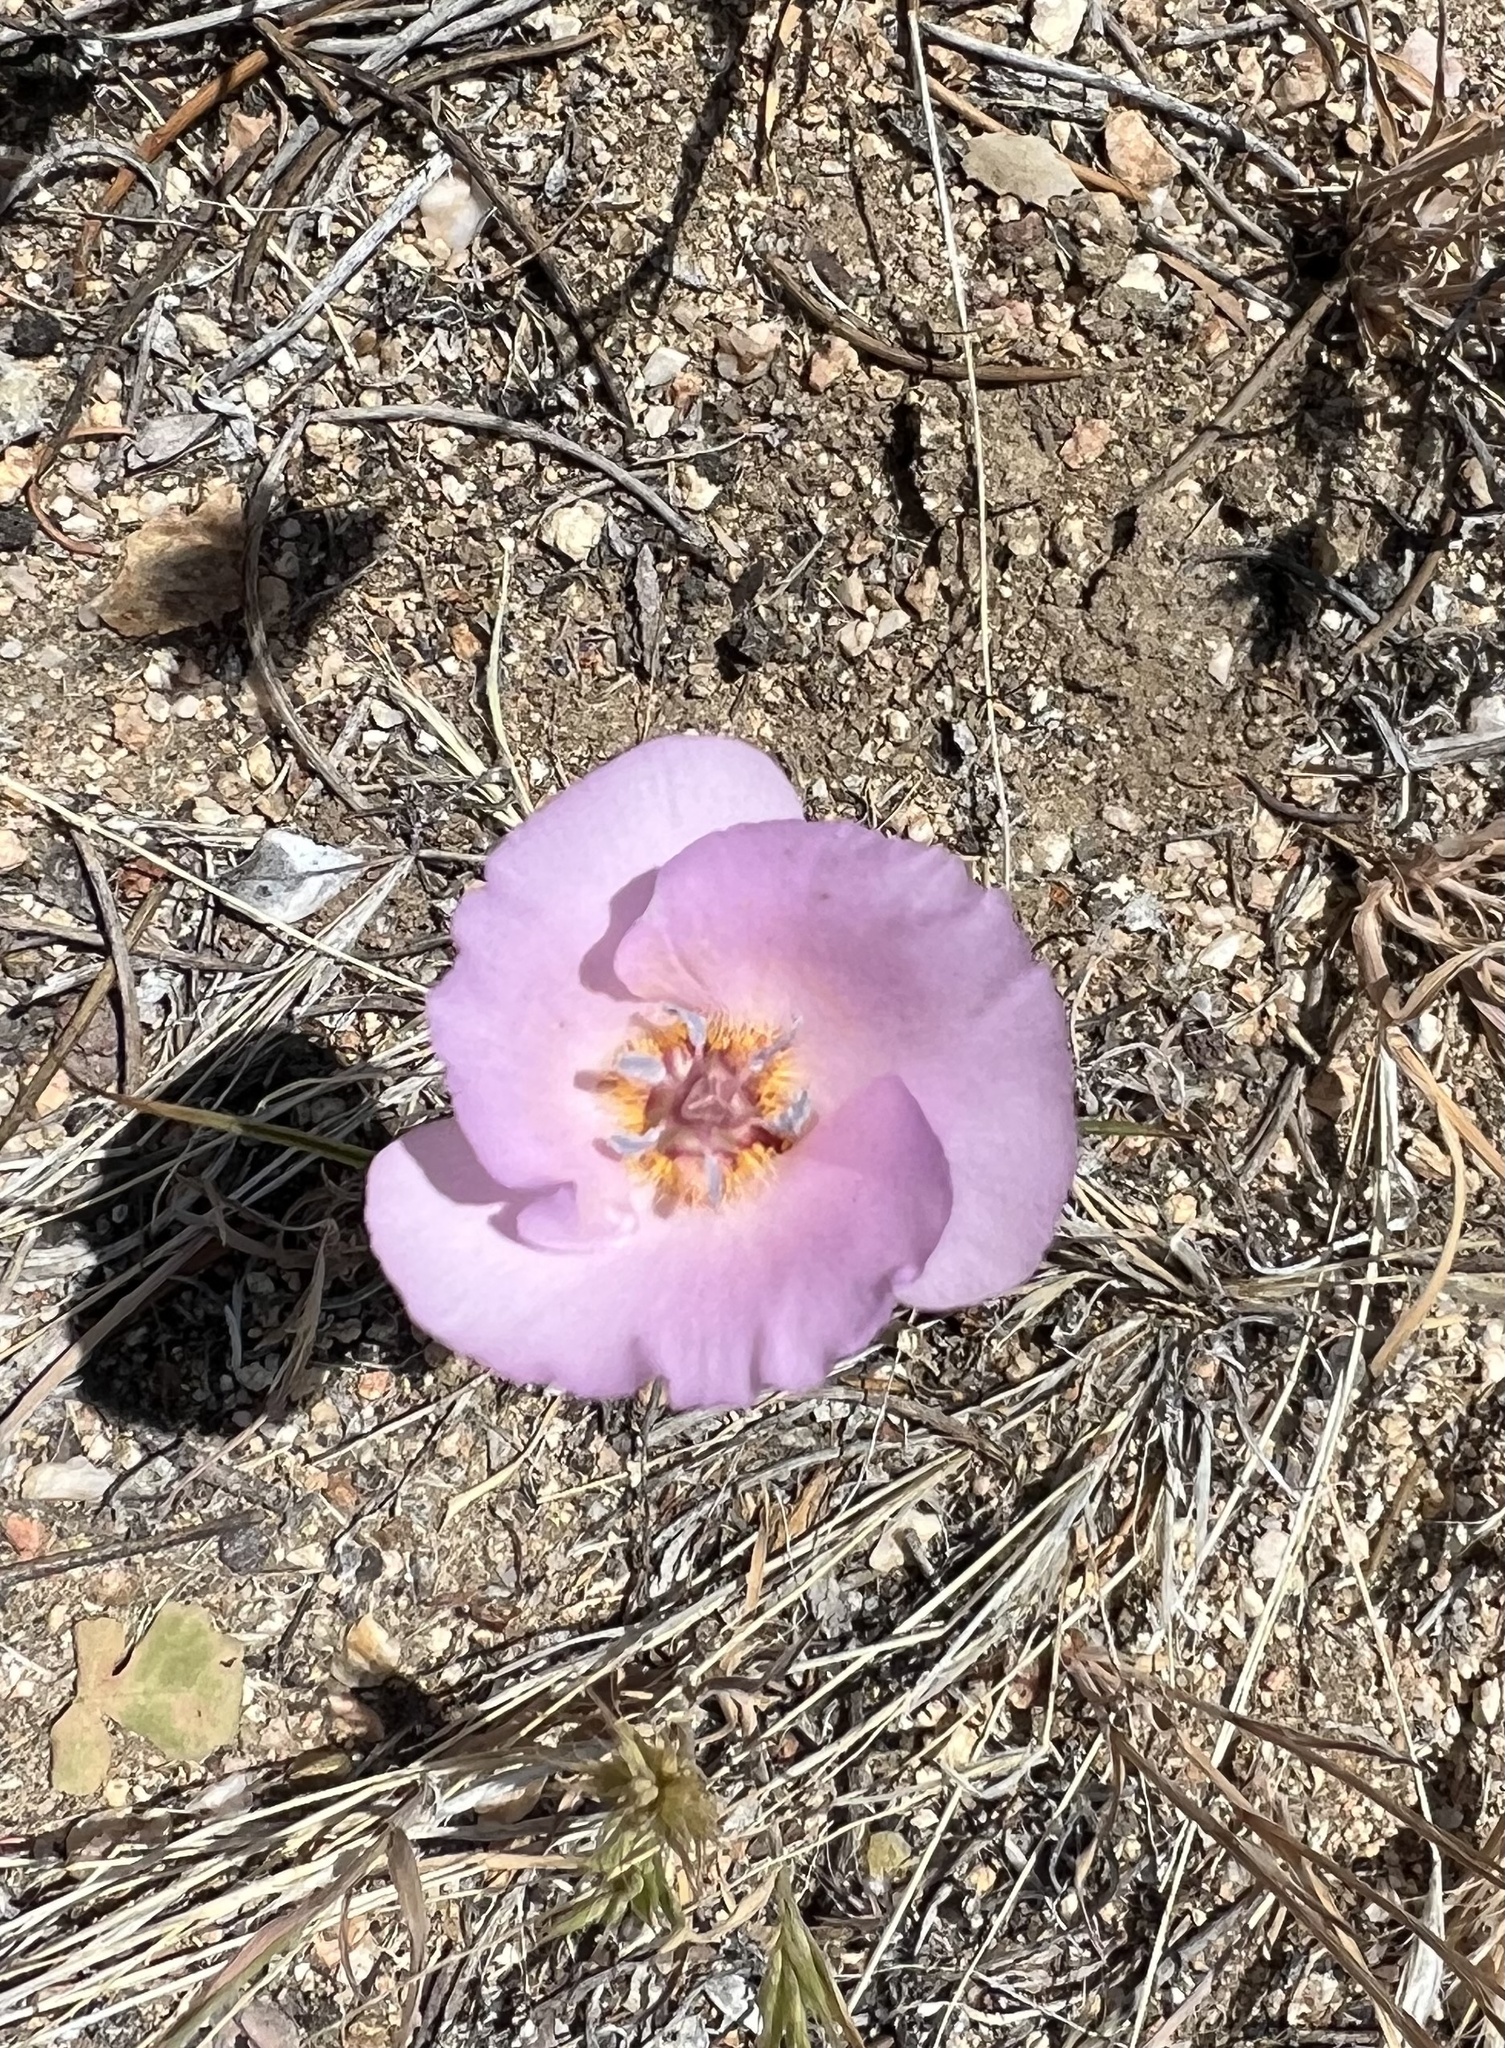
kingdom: Plantae
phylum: Tracheophyta
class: Liliopsida
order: Liliales
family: Liliaceae
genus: Calochortus
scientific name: Calochortus palmeri
